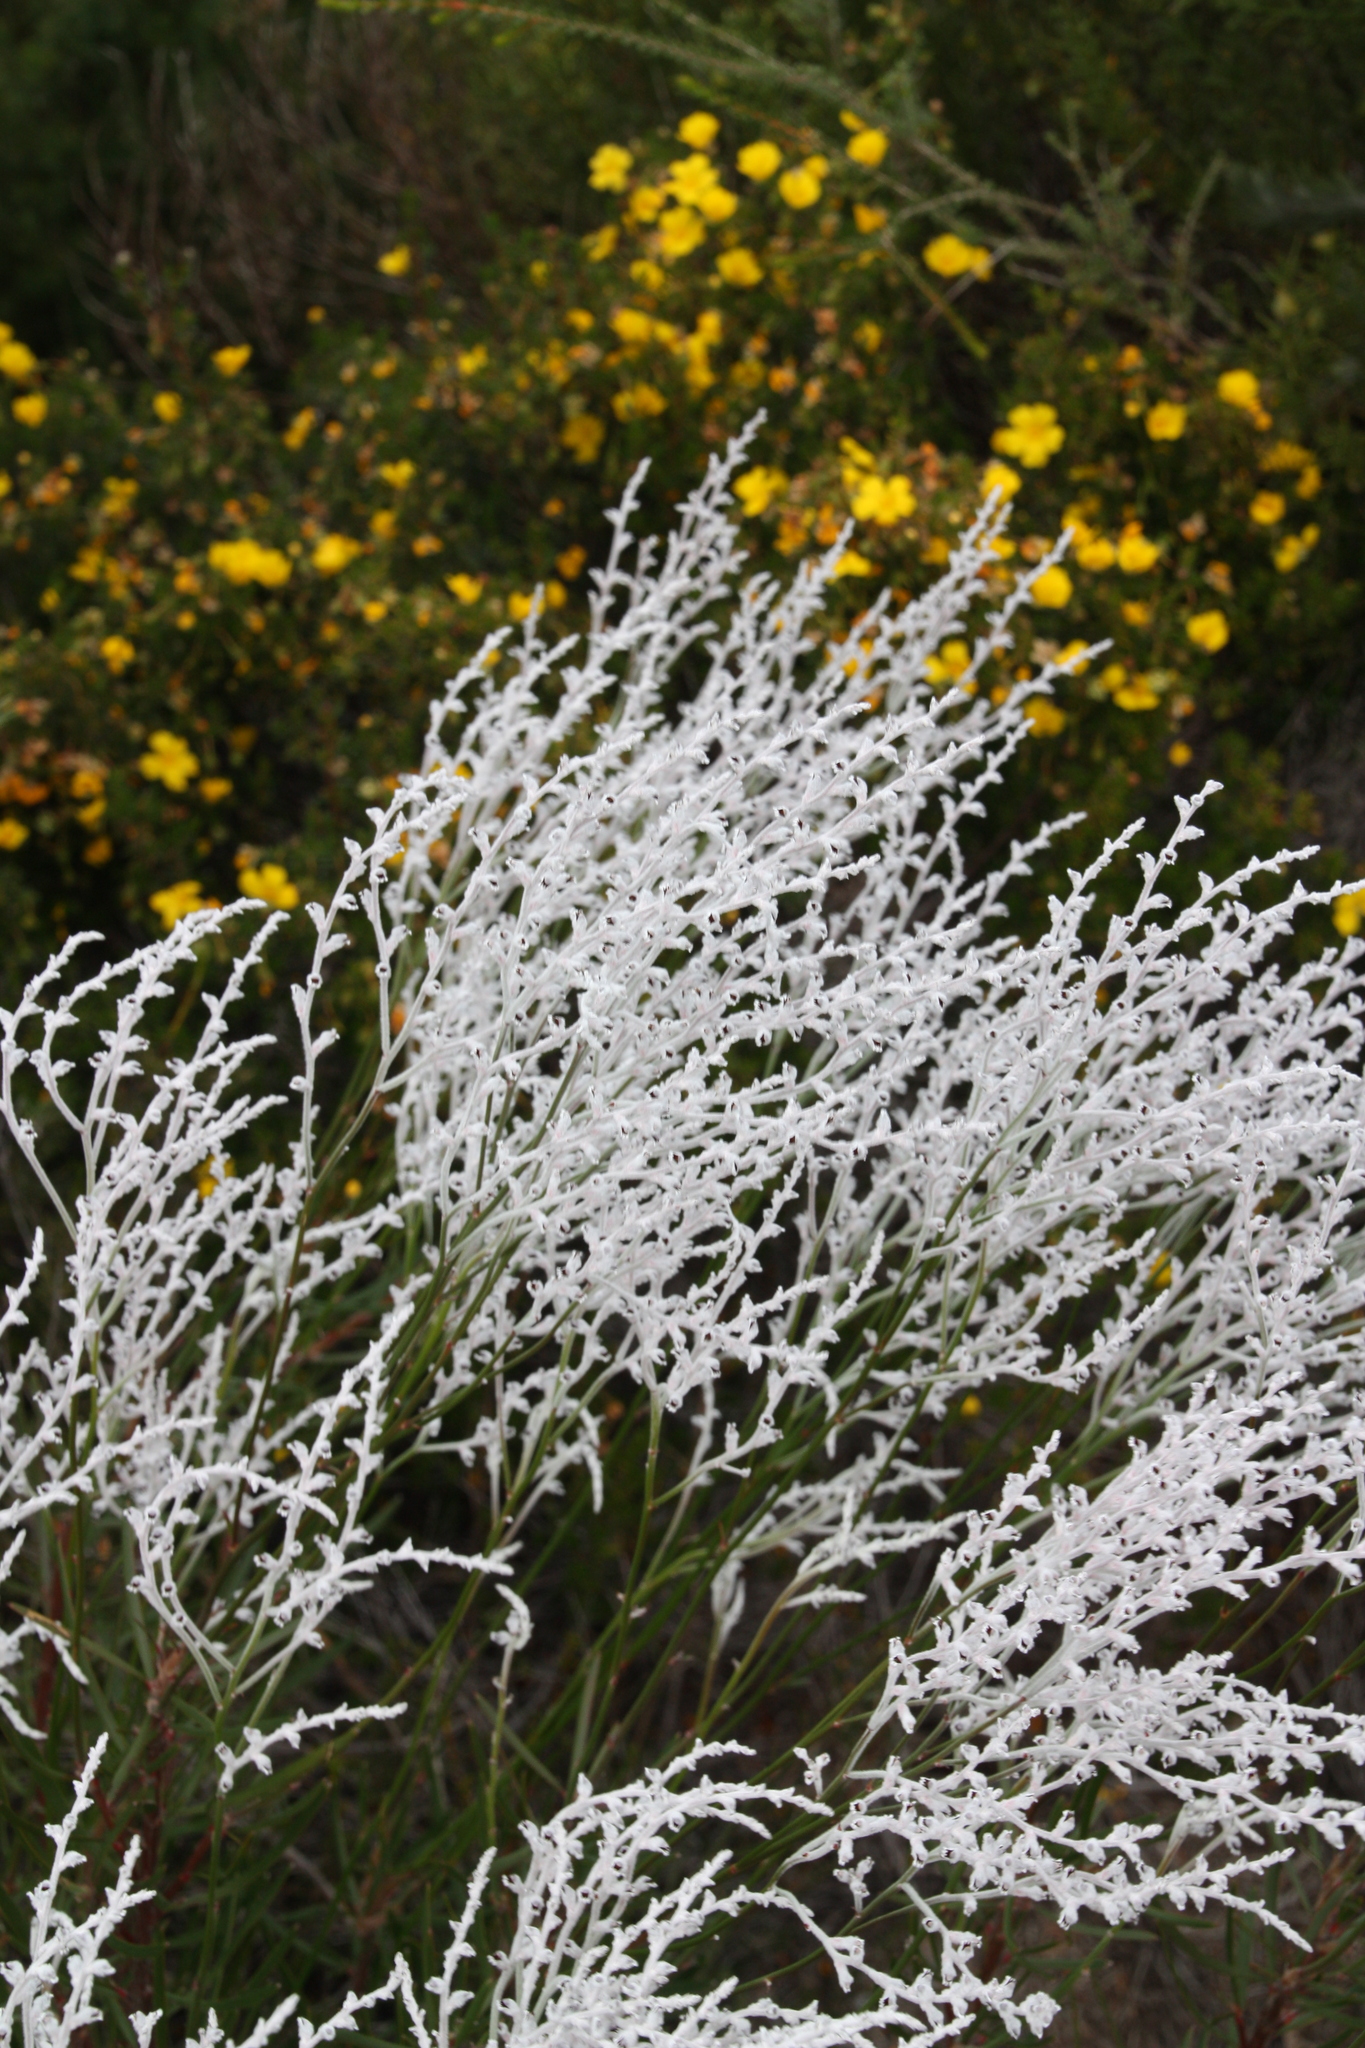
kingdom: Plantae
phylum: Tracheophyta
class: Magnoliopsida
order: Proteales
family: Proteaceae
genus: Conospermum
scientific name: Conospermum triplinervium
